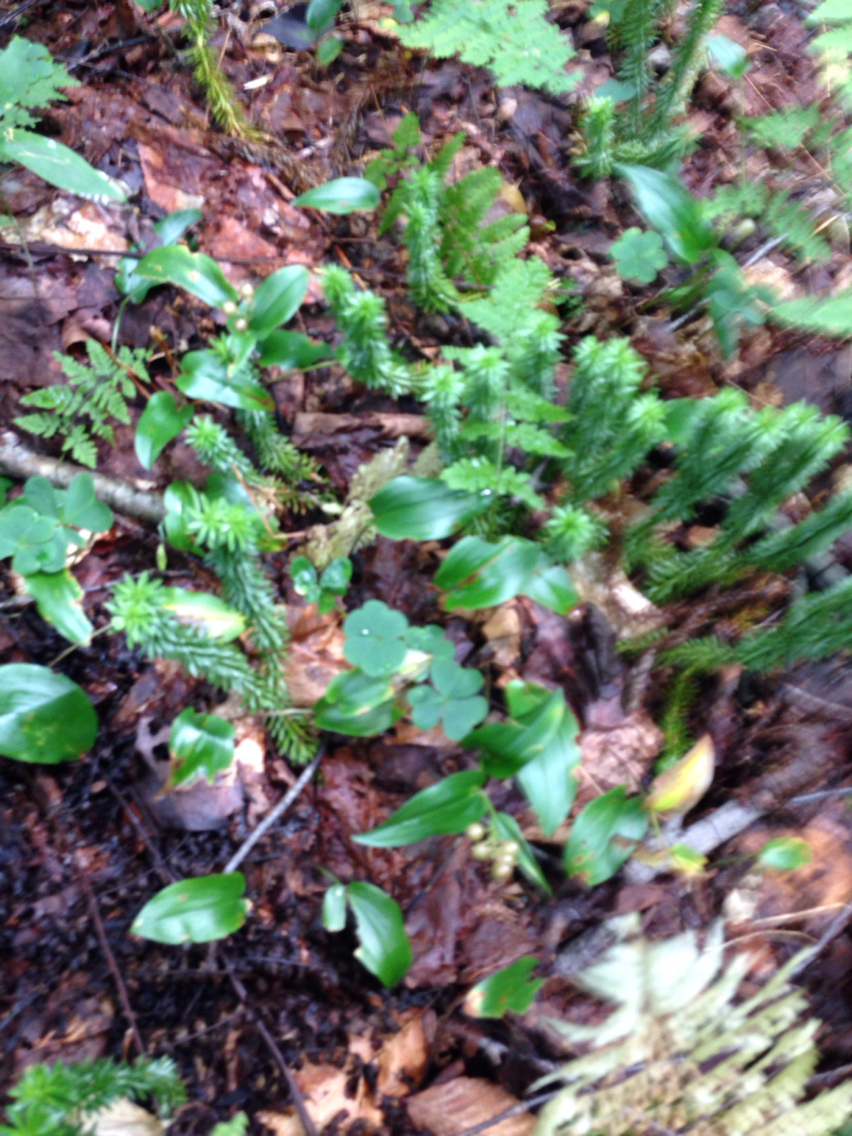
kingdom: Plantae
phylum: Tracheophyta
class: Lycopodiopsida
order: Lycopodiales
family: Lycopodiaceae
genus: Huperzia
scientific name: Huperzia lucidula
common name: Shining clubmoss
